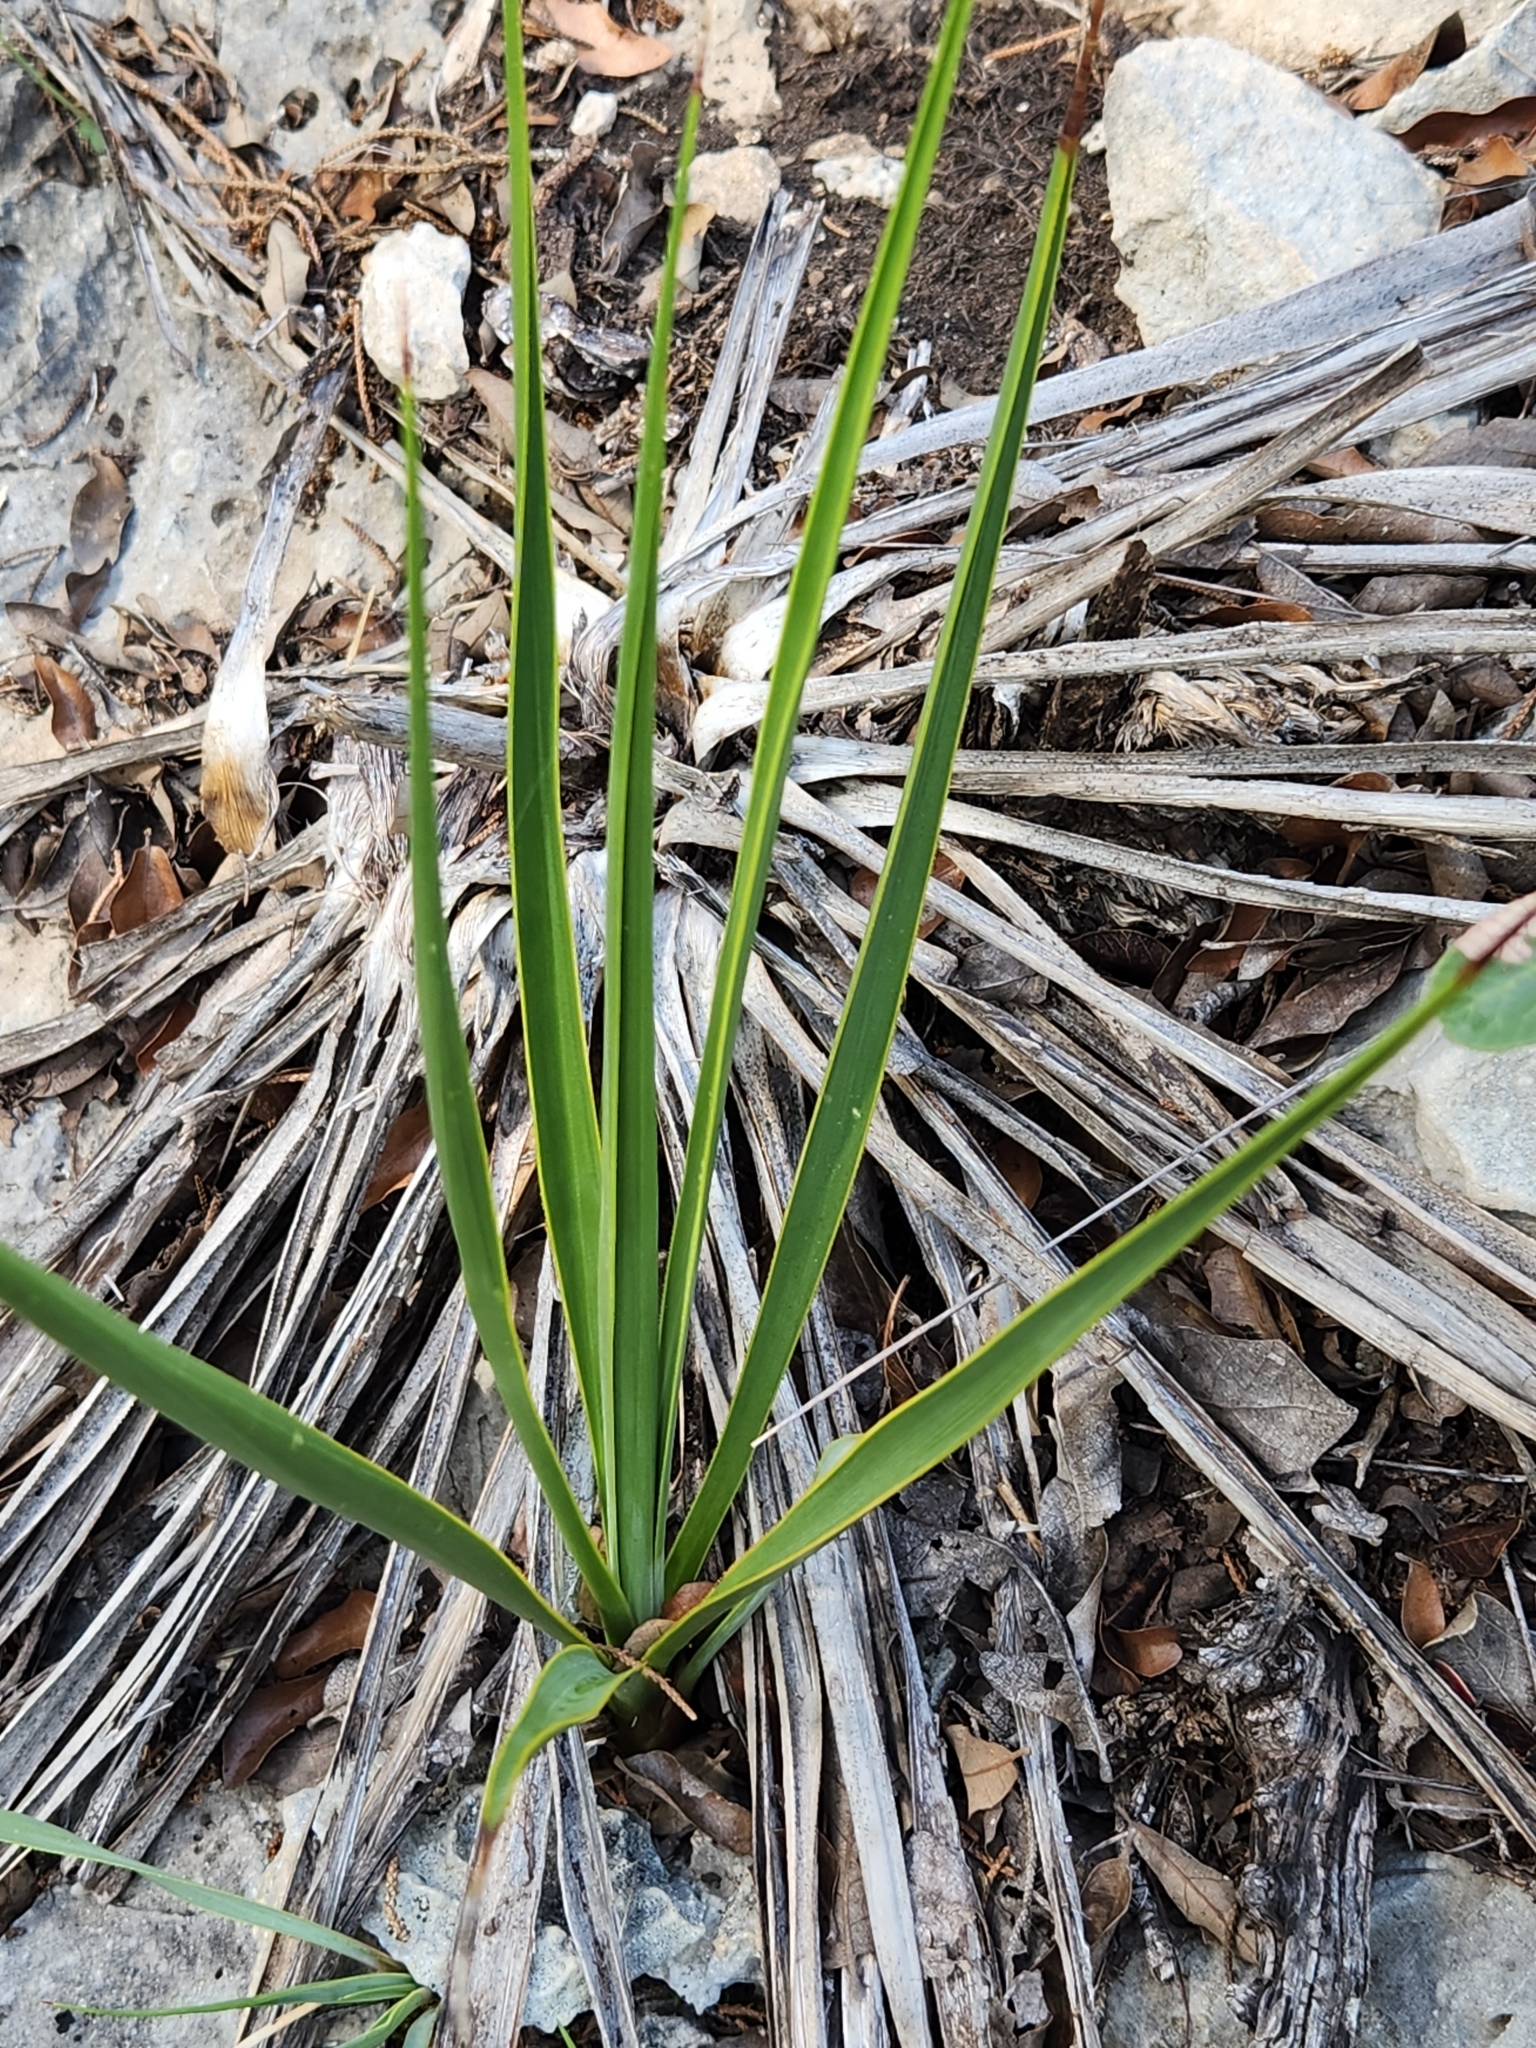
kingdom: Plantae
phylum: Tracheophyta
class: Liliopsida
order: Asparagales
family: Asparagaceae
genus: Yucca
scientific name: Yucca rupicola
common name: Twisted-leaf spanish-dagger
